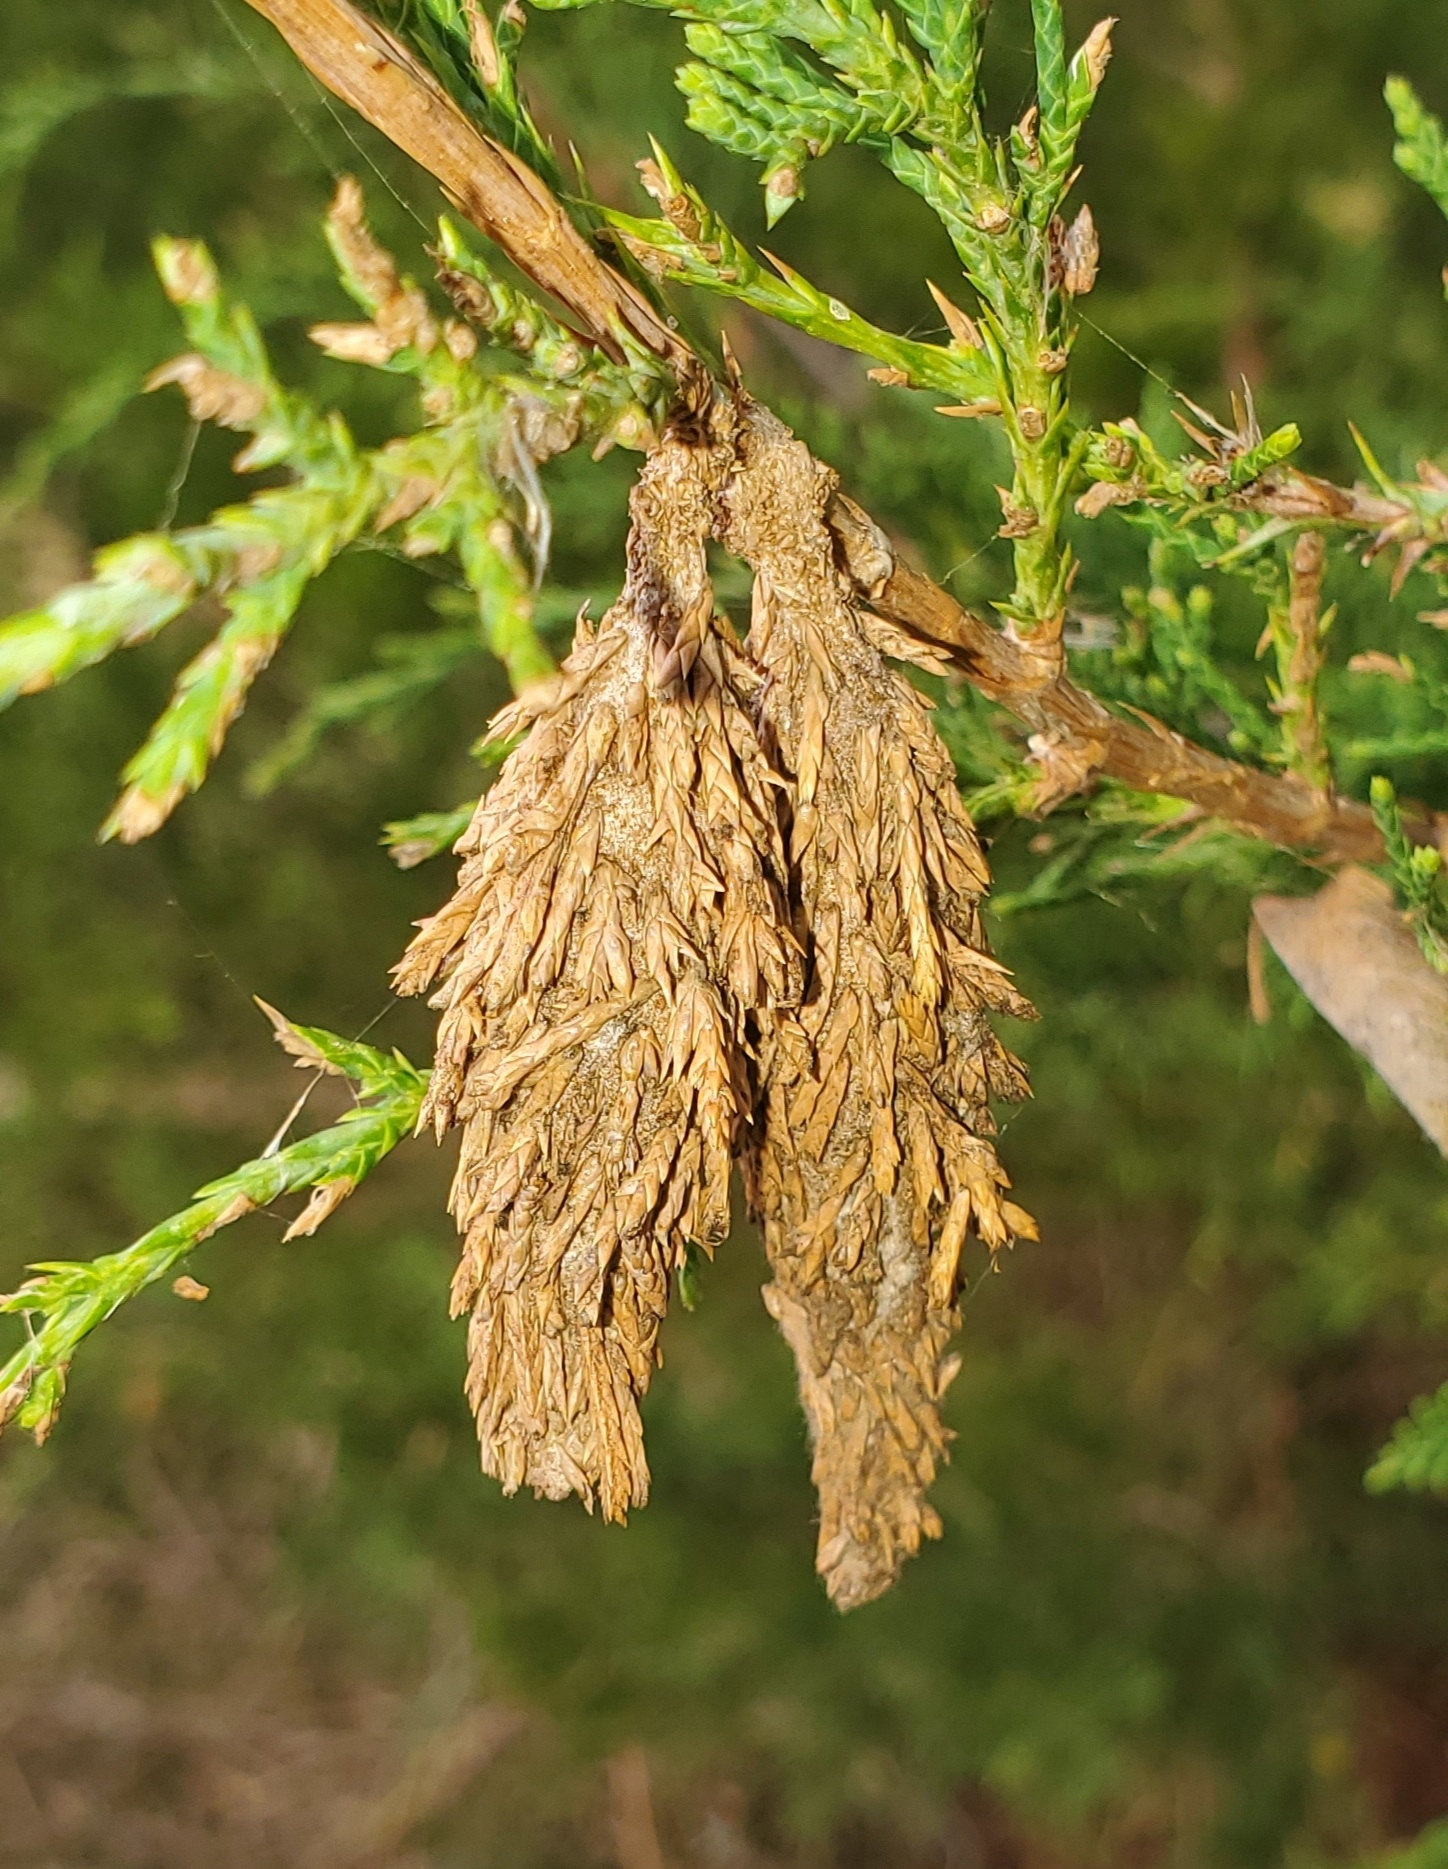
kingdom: Animalia
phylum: Arthropoda
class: Insecta
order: Lepidoptera
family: Psychidae
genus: Thyridopteryx
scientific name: Thyridopteryx ephemeraeformis
